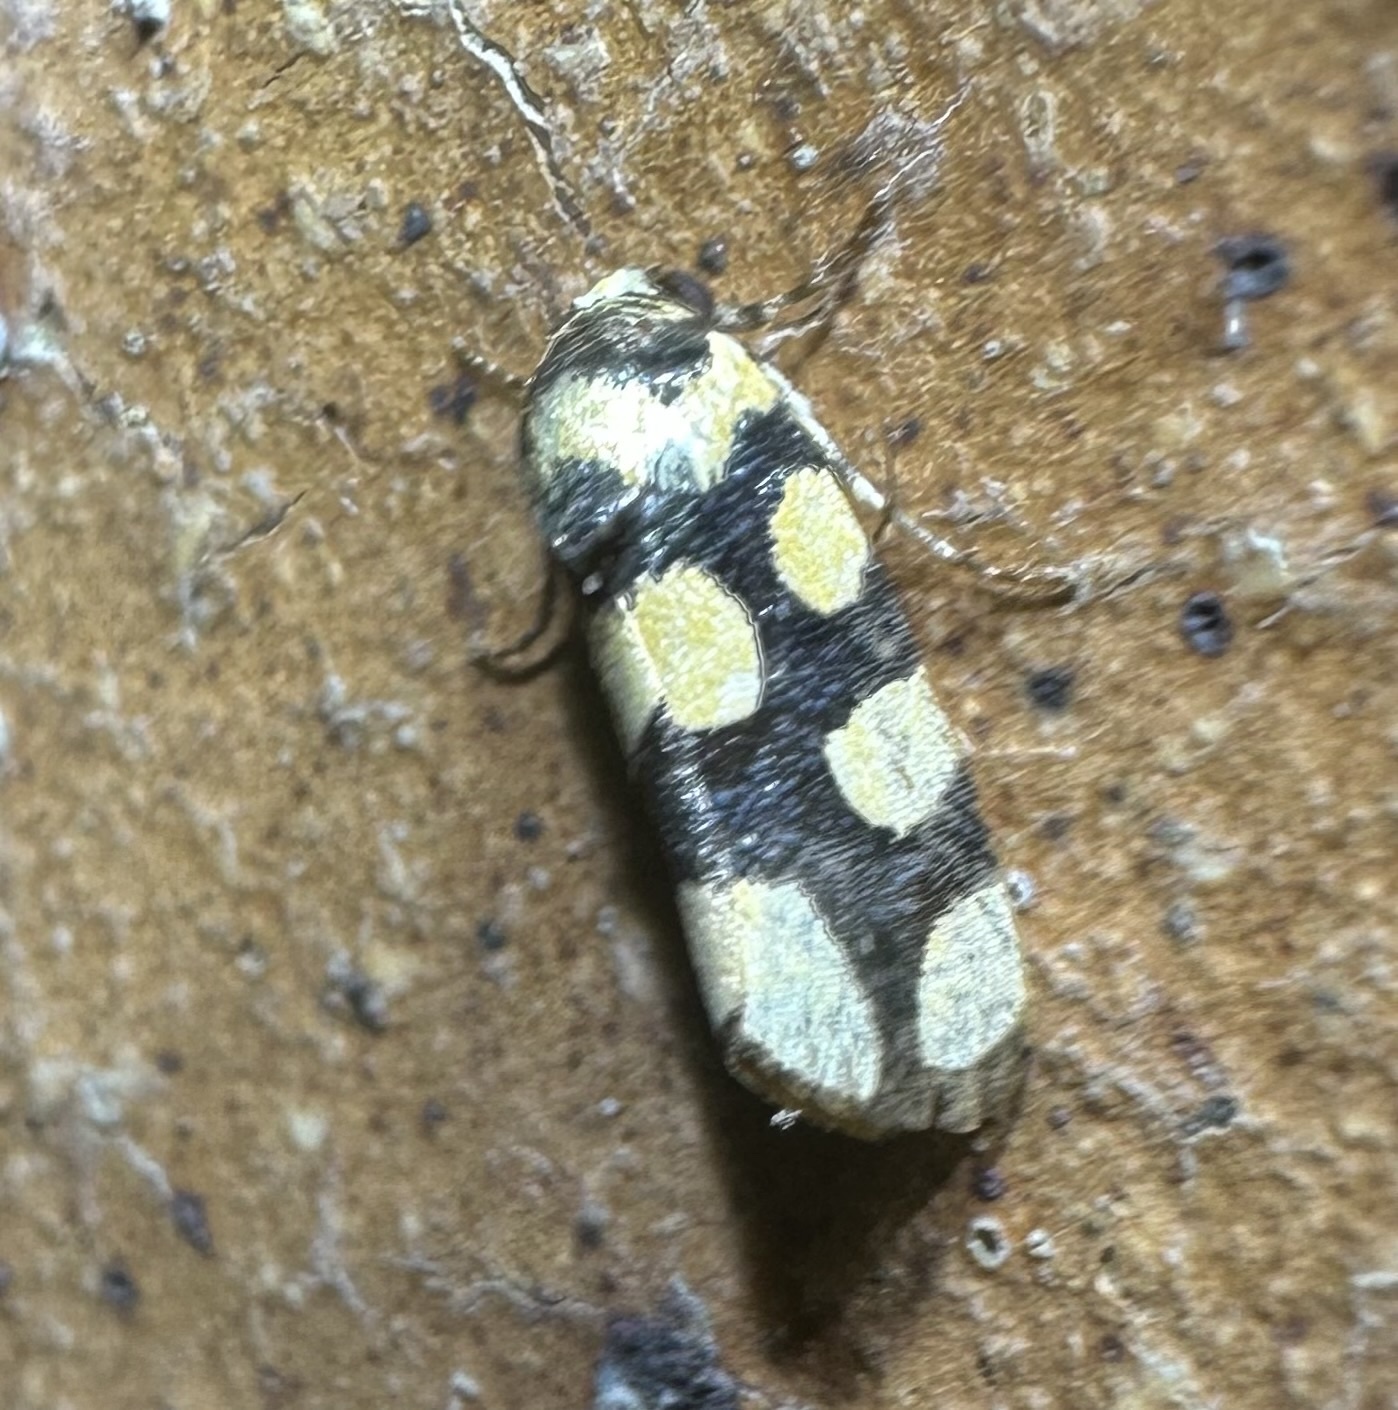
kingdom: Animalia
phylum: Arthropoda
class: Insecta
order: Lepidoptera
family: Noctuidae
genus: Acontia
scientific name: Acontia guttifera
